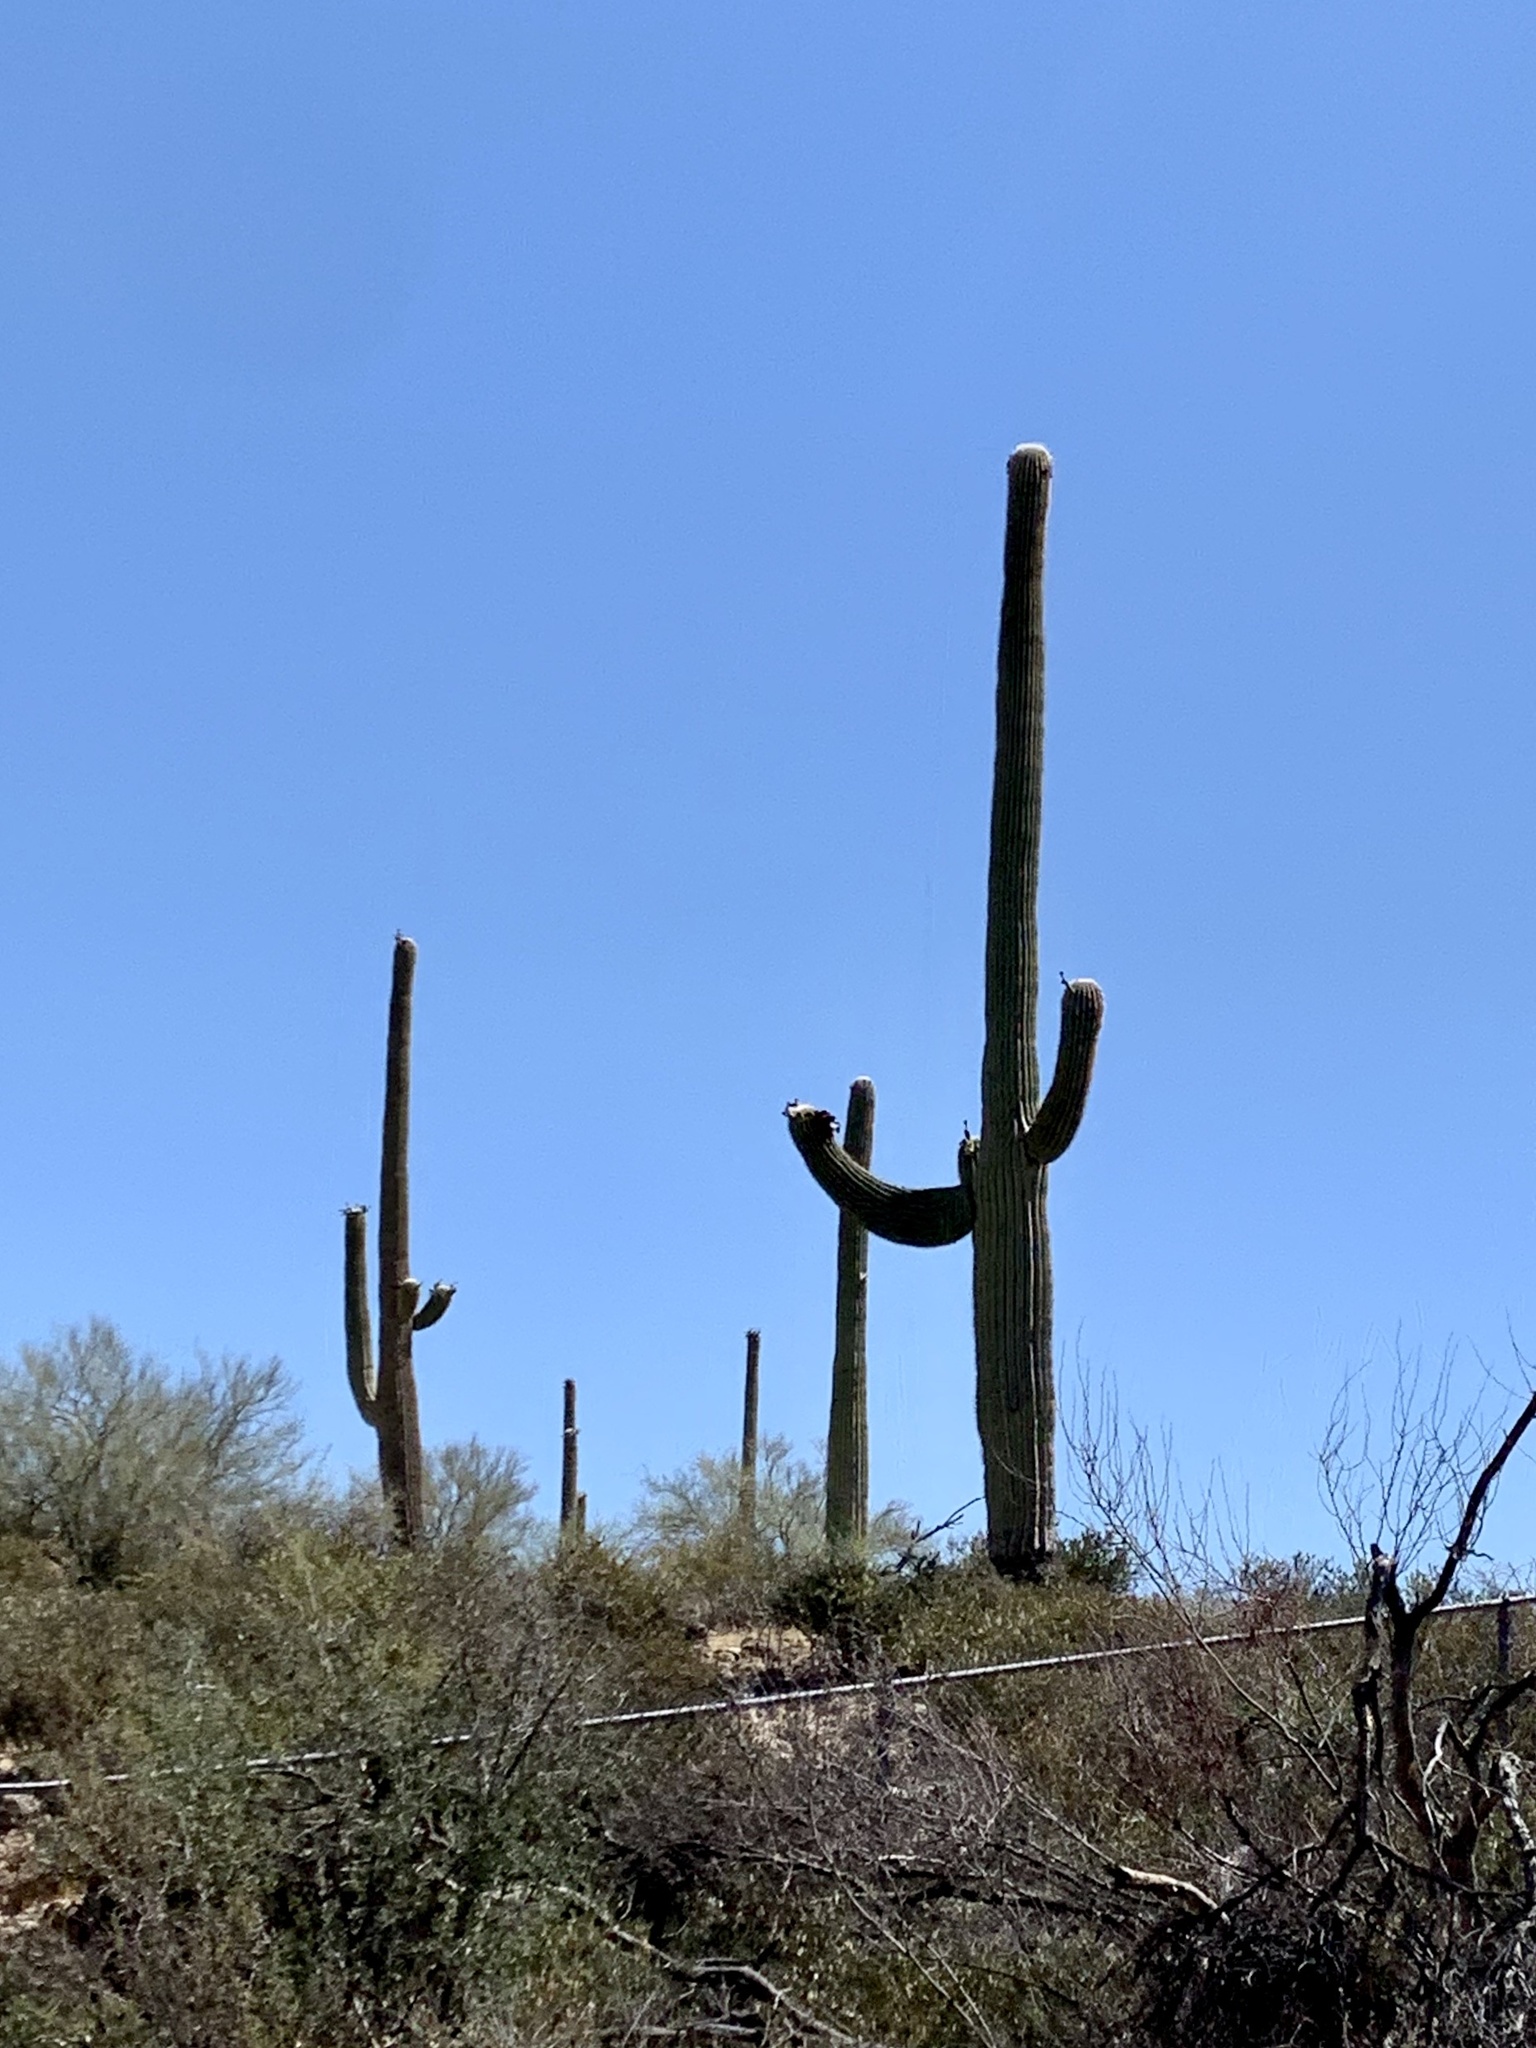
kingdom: Plantae
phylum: Tracheophyta
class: Magnoliopsida
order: Caryophyllales
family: Cactaceae
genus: Carnegiea
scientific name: Carnegiea gigantea
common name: Saguaro
